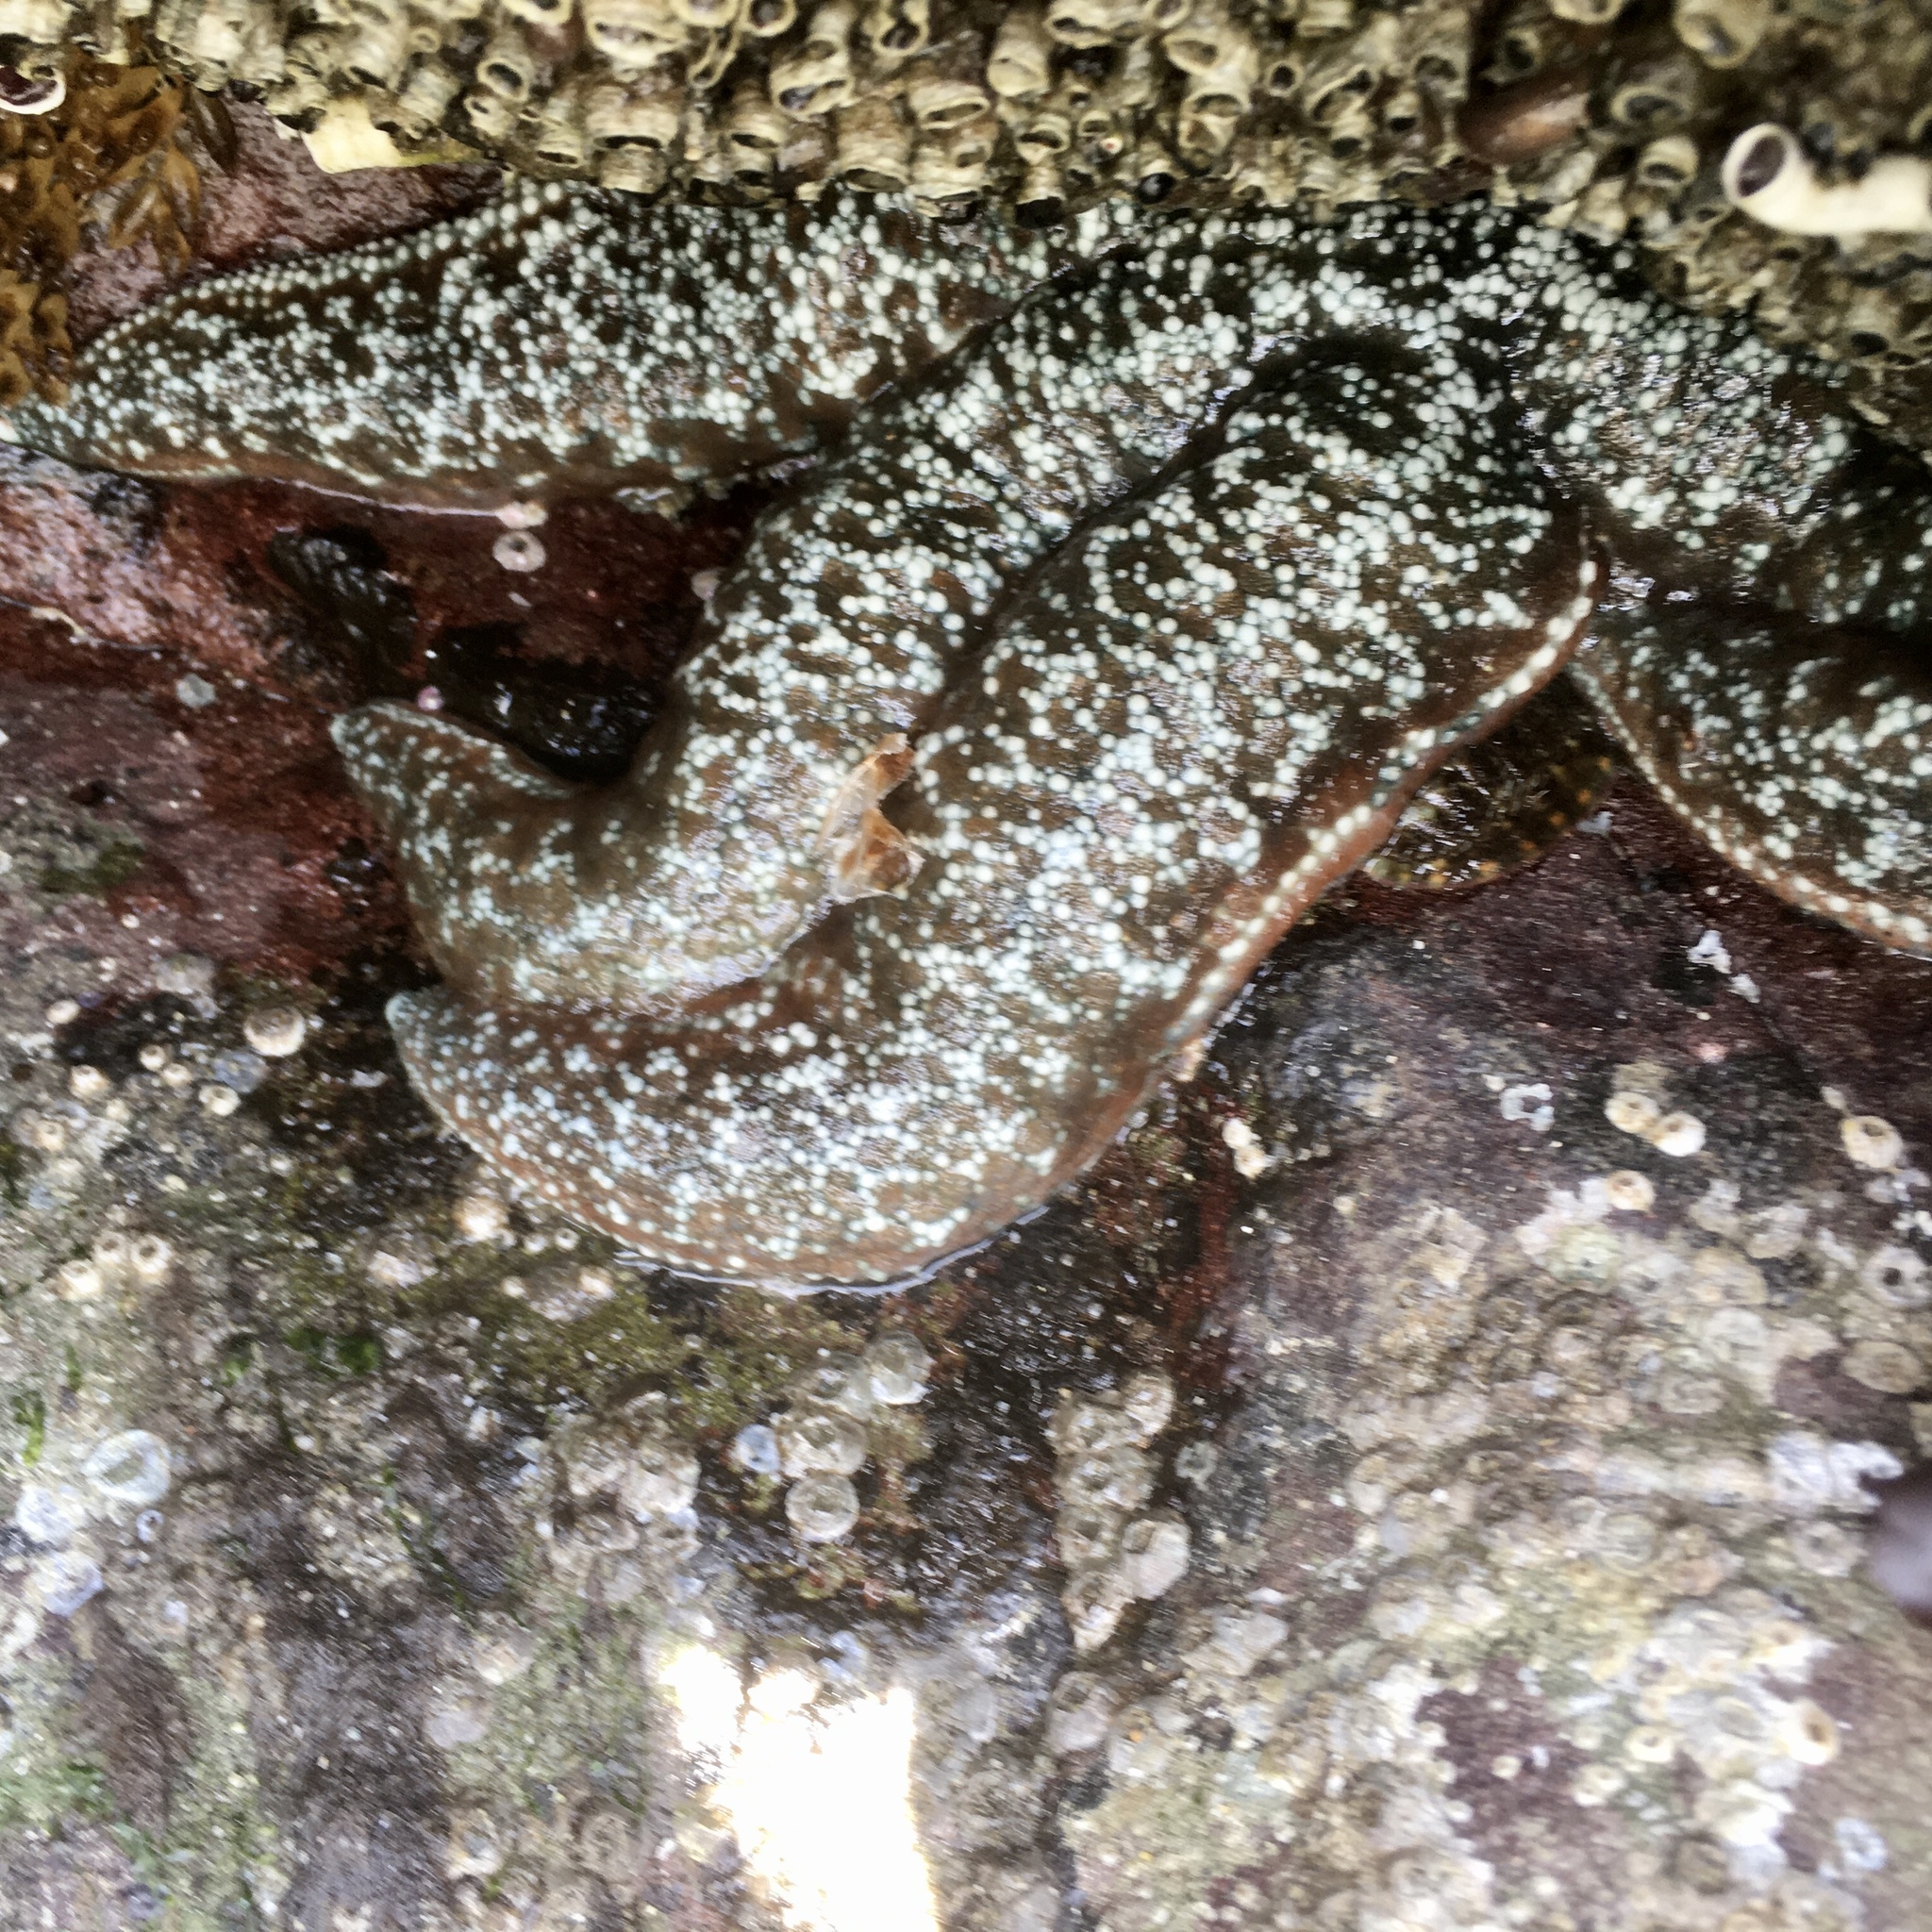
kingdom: Animalia
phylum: Echinodermata
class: Asteroidea
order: Forcipulatida
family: Asteriidae
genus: Evasterias
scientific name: Evasterias troschelii
